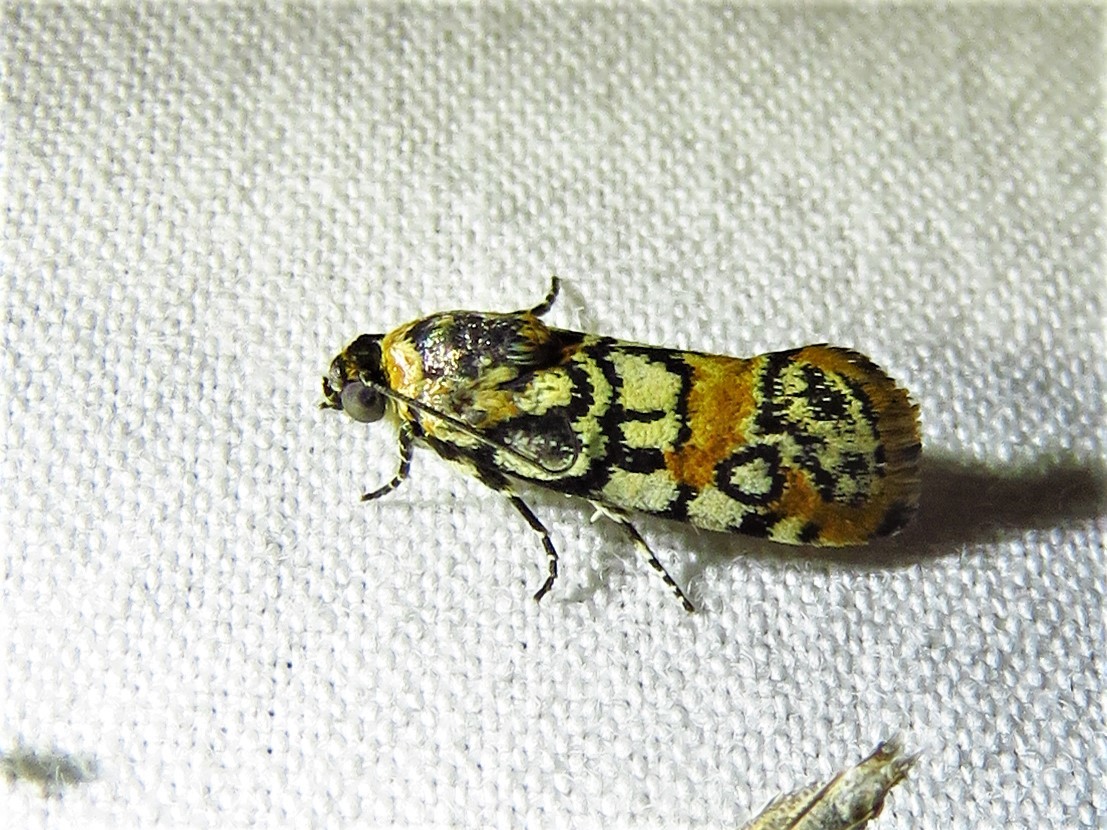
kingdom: Animalia
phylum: Arthropoda
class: Insecta
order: Lepidoptera
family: Noctuidae
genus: Spragueia
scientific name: Spragueia guttata
